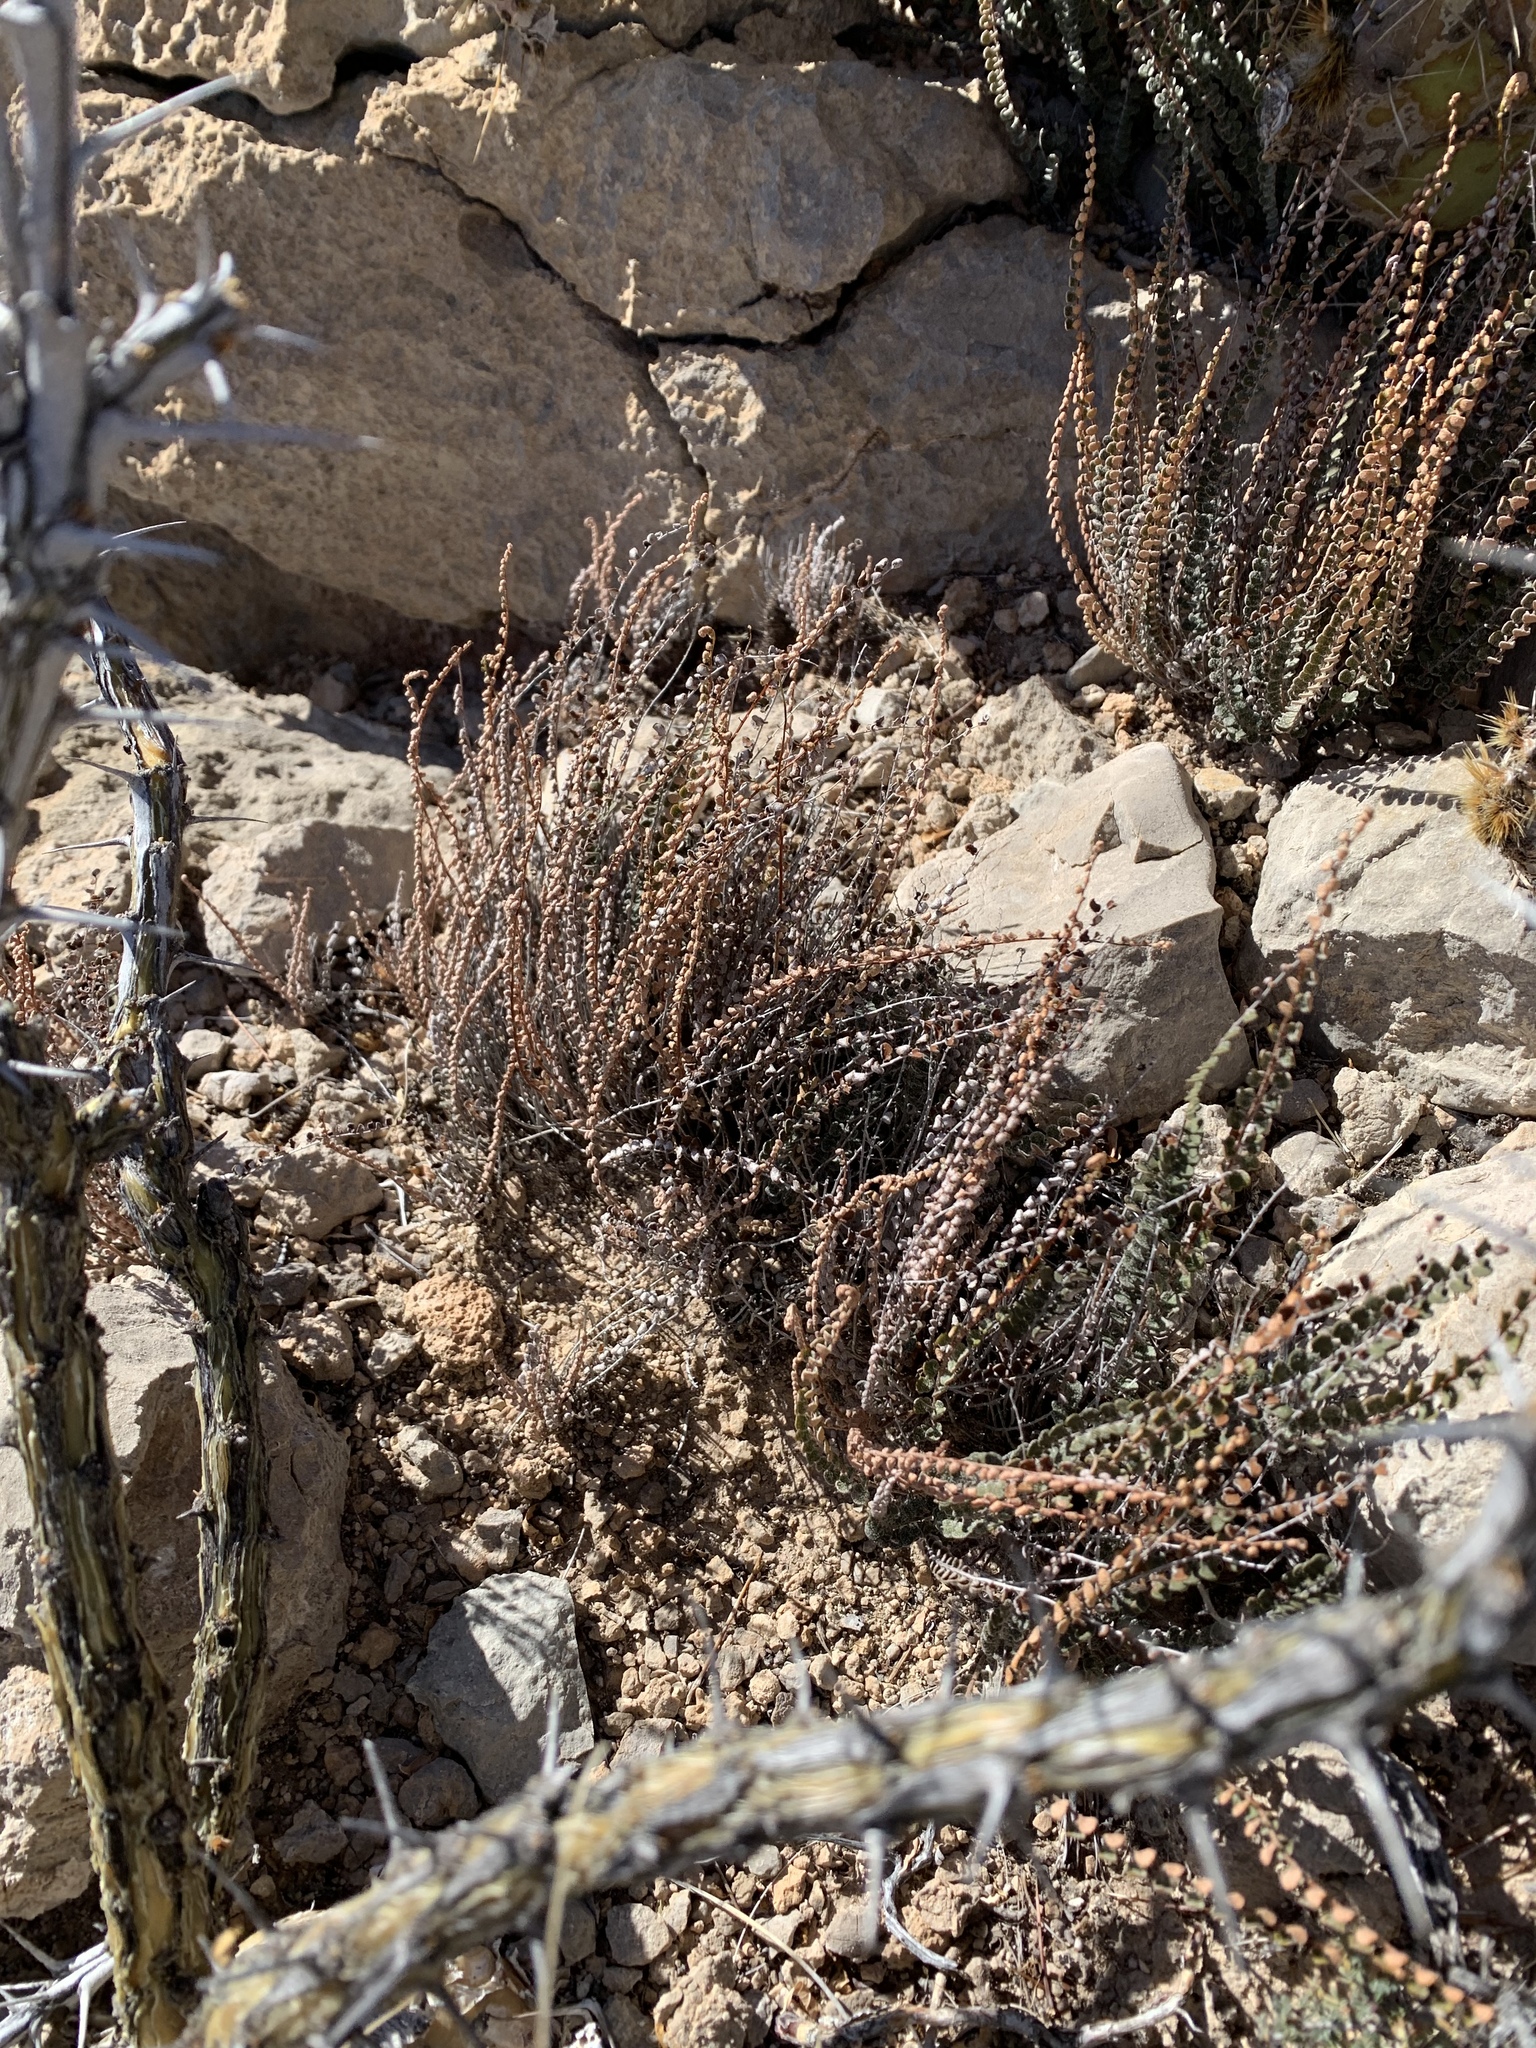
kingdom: Plantae
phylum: Tracheophyta
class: Polypodiopsida
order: Polypodiales
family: Pteridaceae
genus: Astrolepis
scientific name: Astrolepis cochisensis
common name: Scaly cloak fern
